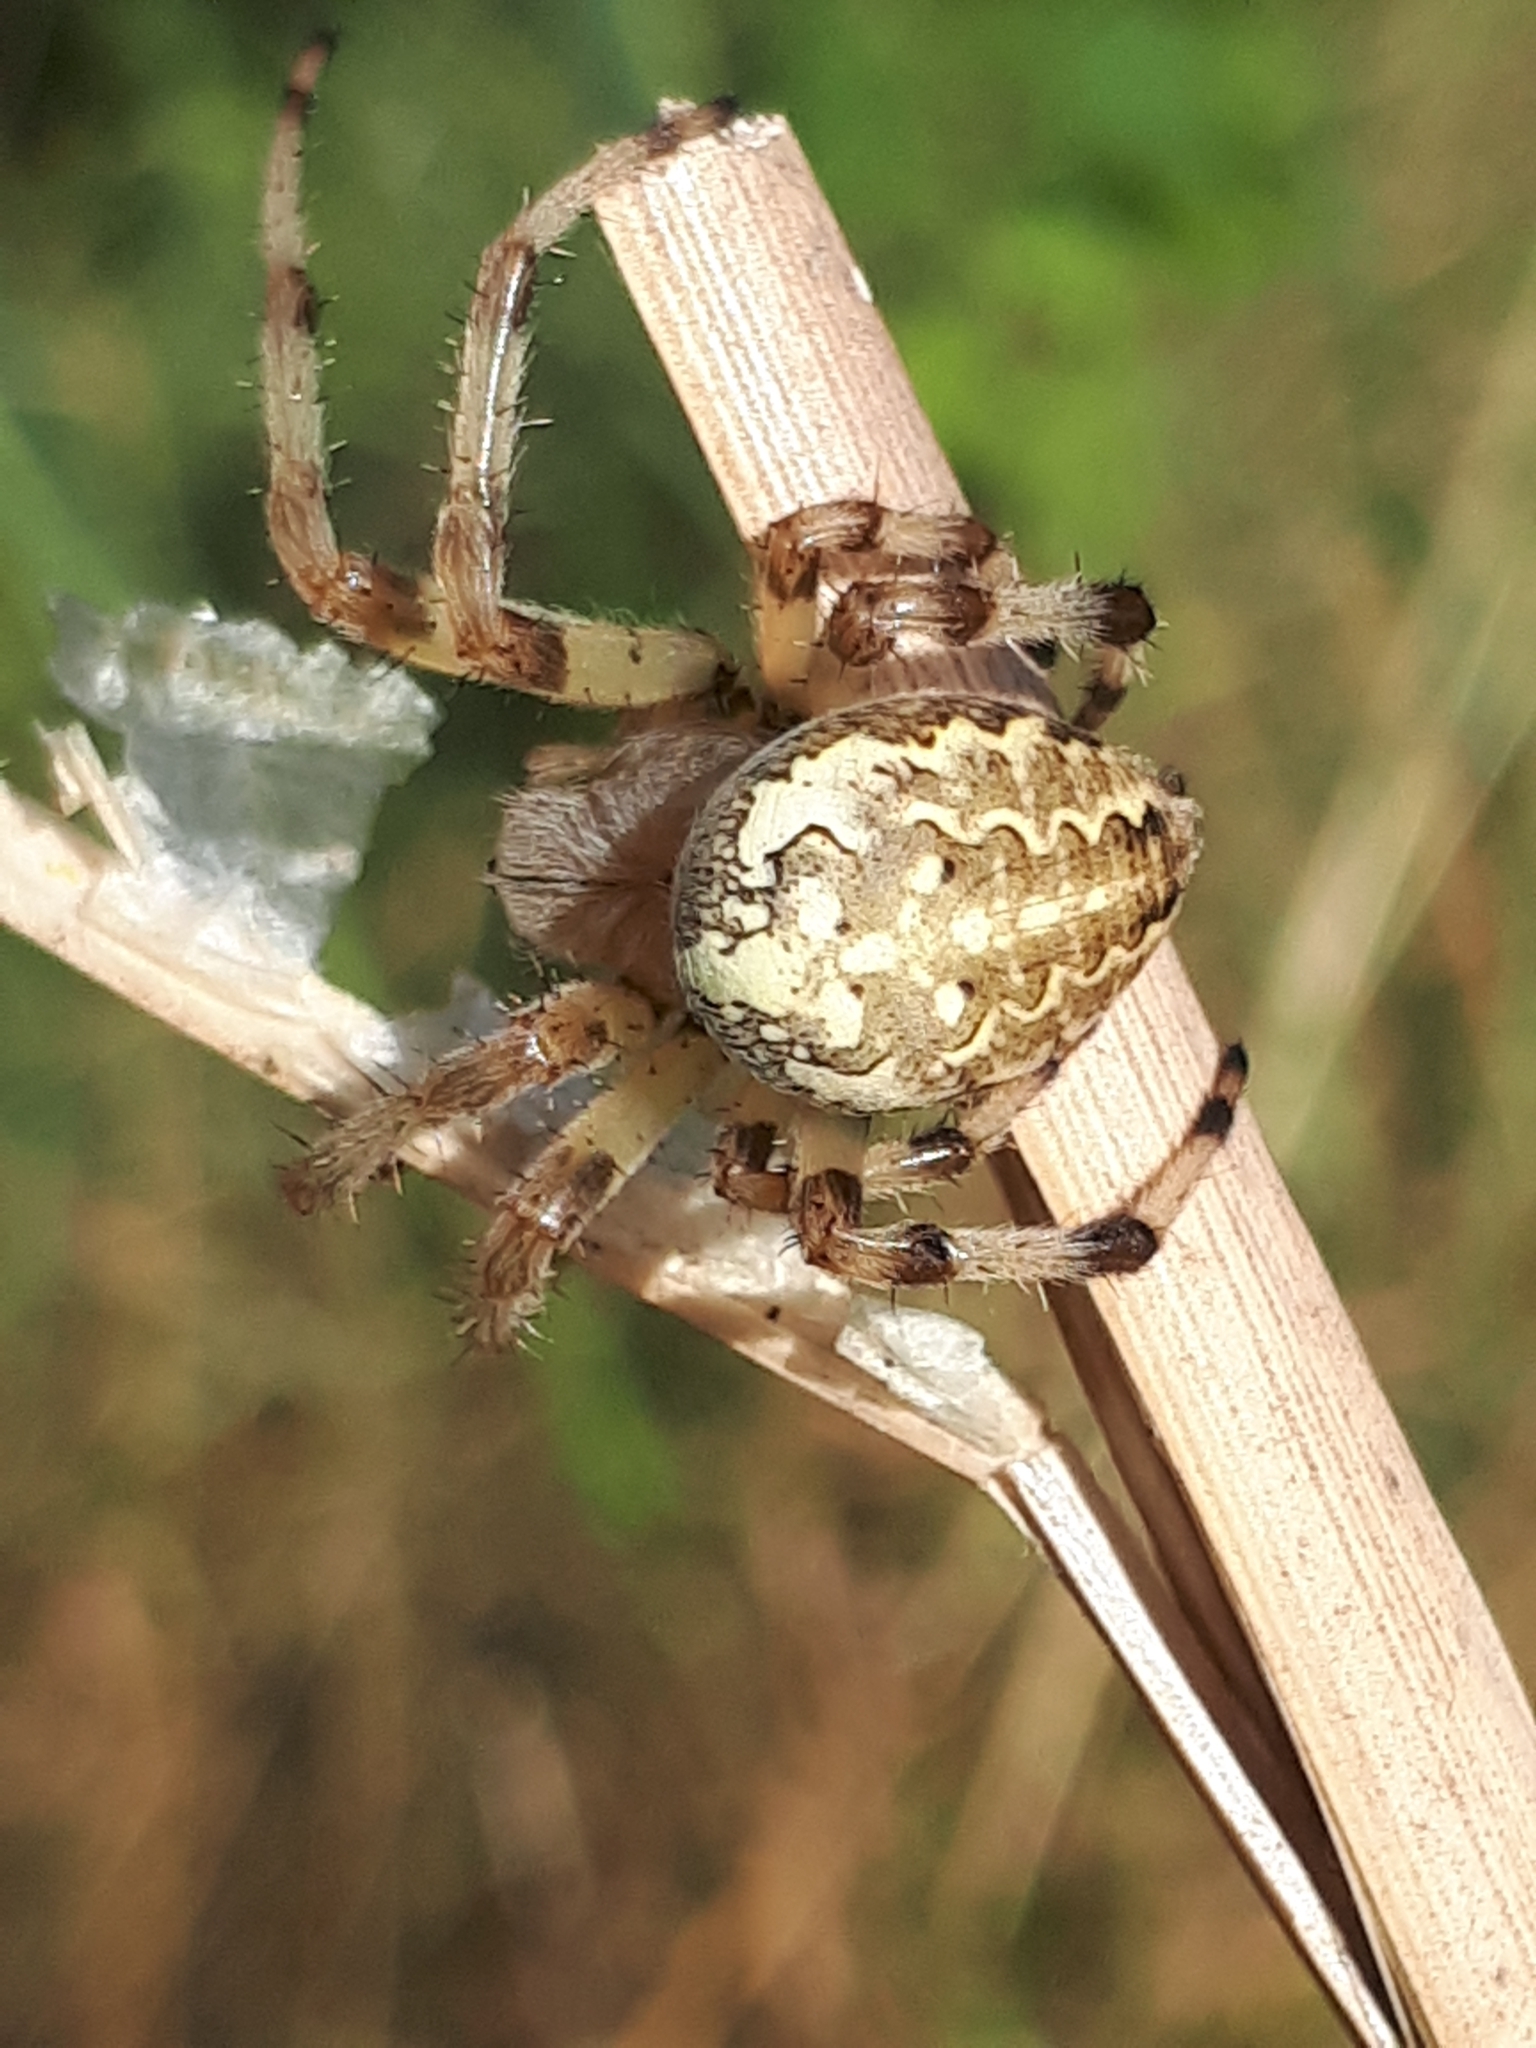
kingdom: Animalia
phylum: Arthropoda
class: Arachnida
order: Araneae
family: Araneidae
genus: Araneus
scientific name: Araneus marmoreus
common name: Marbled orbweaver
